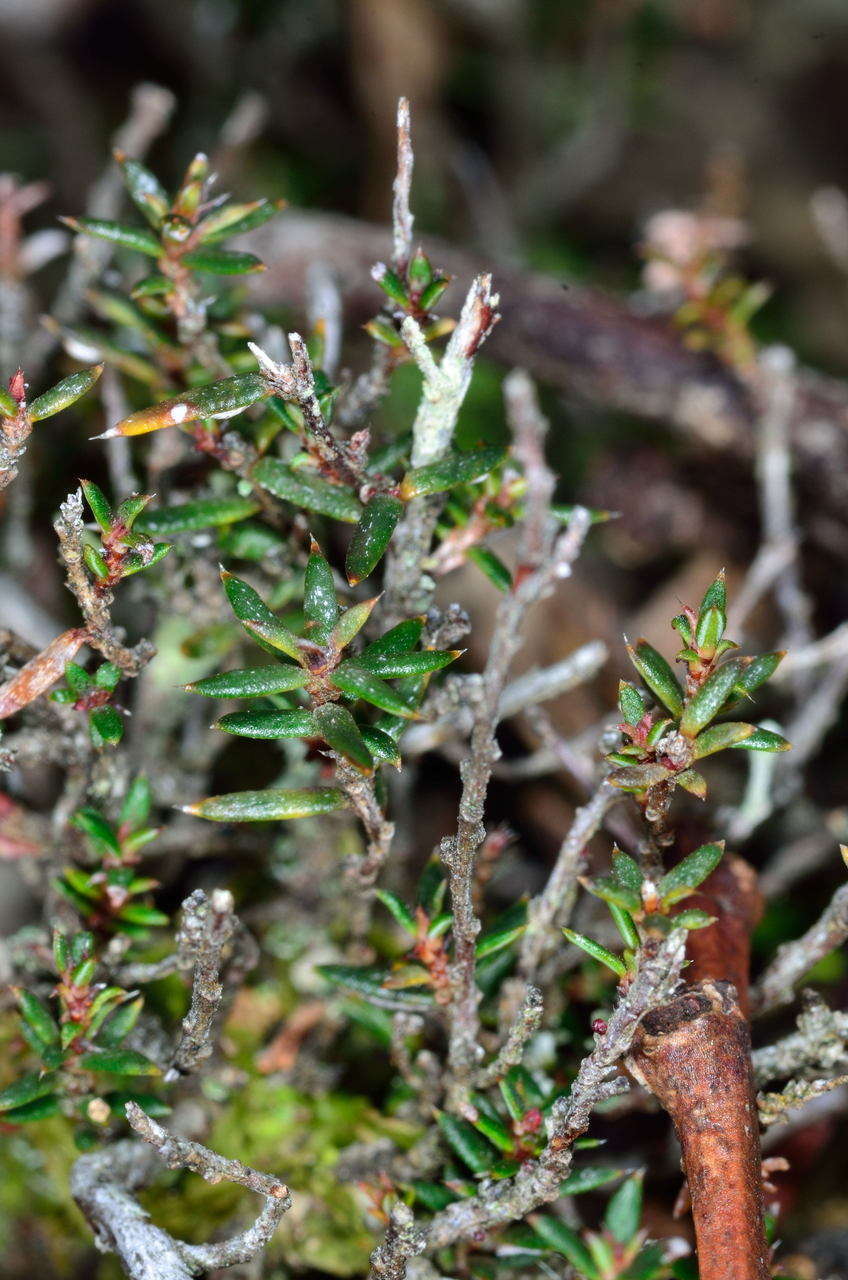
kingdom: Plantae
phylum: Tracheophyta
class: Magnoliopsida
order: Dilleniales
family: Dilleniaceae
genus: Hibbertia
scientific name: Hibbertia exutiacies
